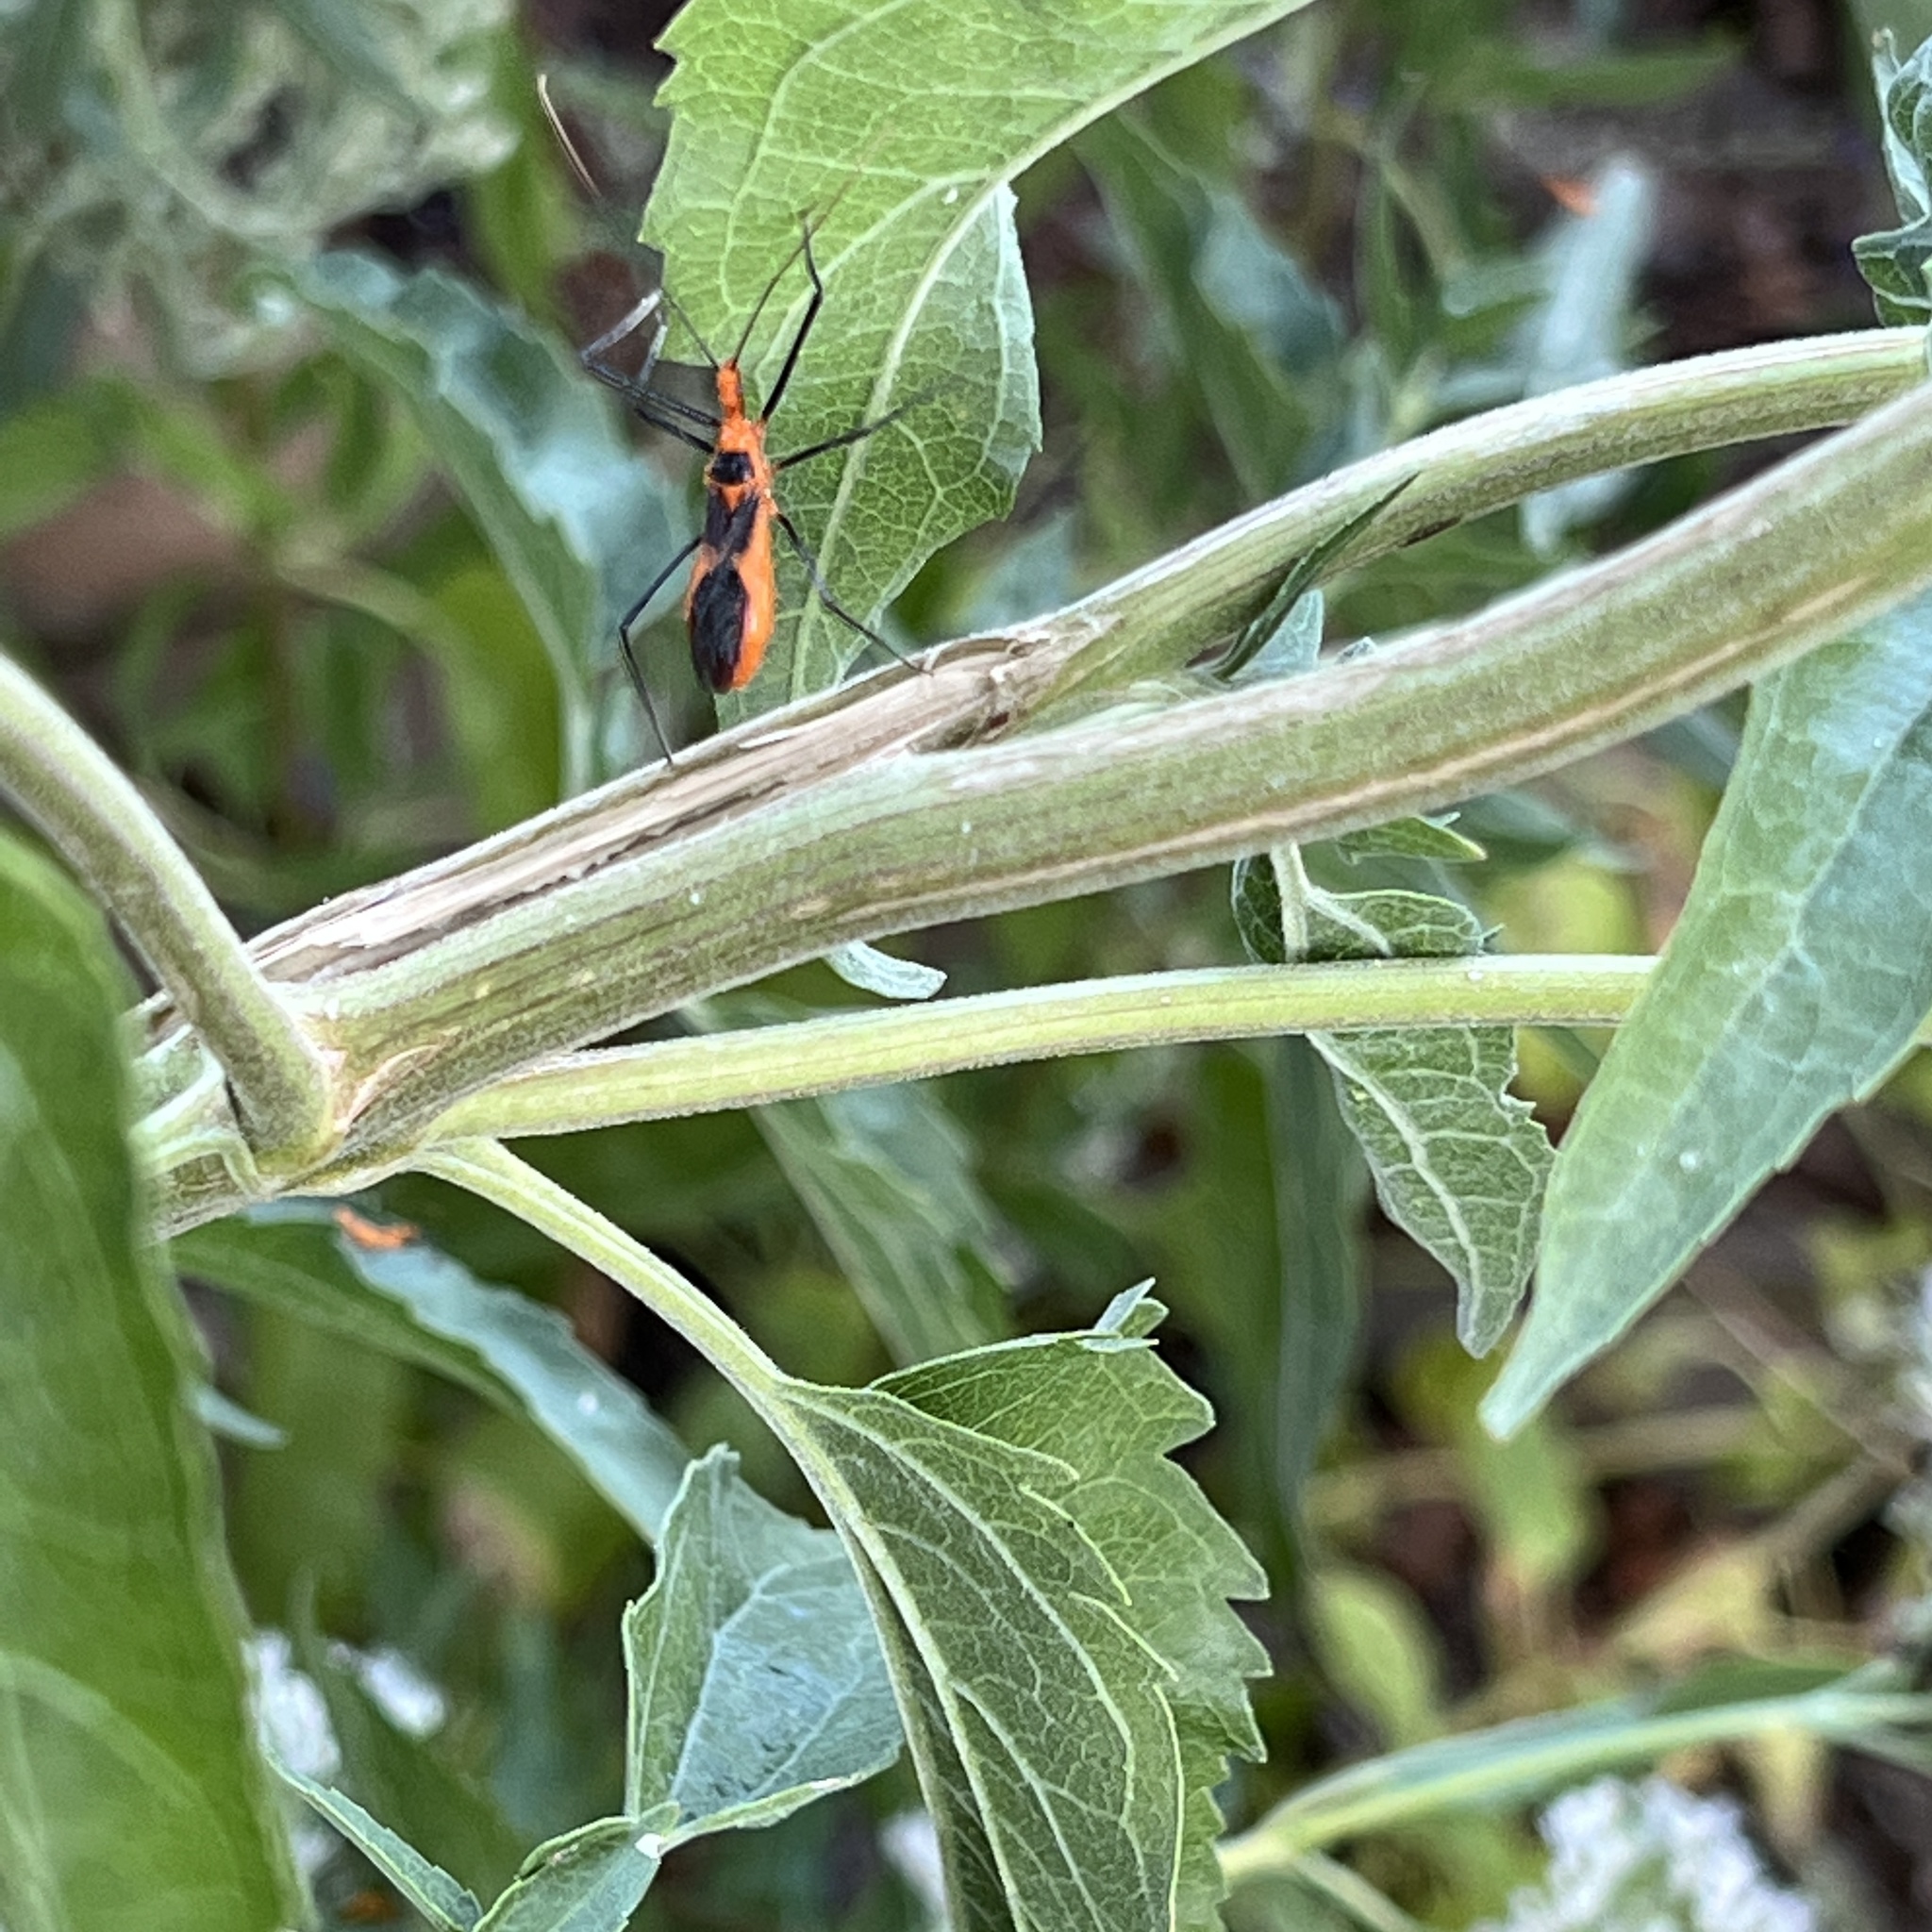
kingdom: Animalia
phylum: Arthropoda
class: Insecta
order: Hemiptera
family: Reduviidae
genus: Zelus
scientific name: Zelus longipes
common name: Milkweed assassin bug
